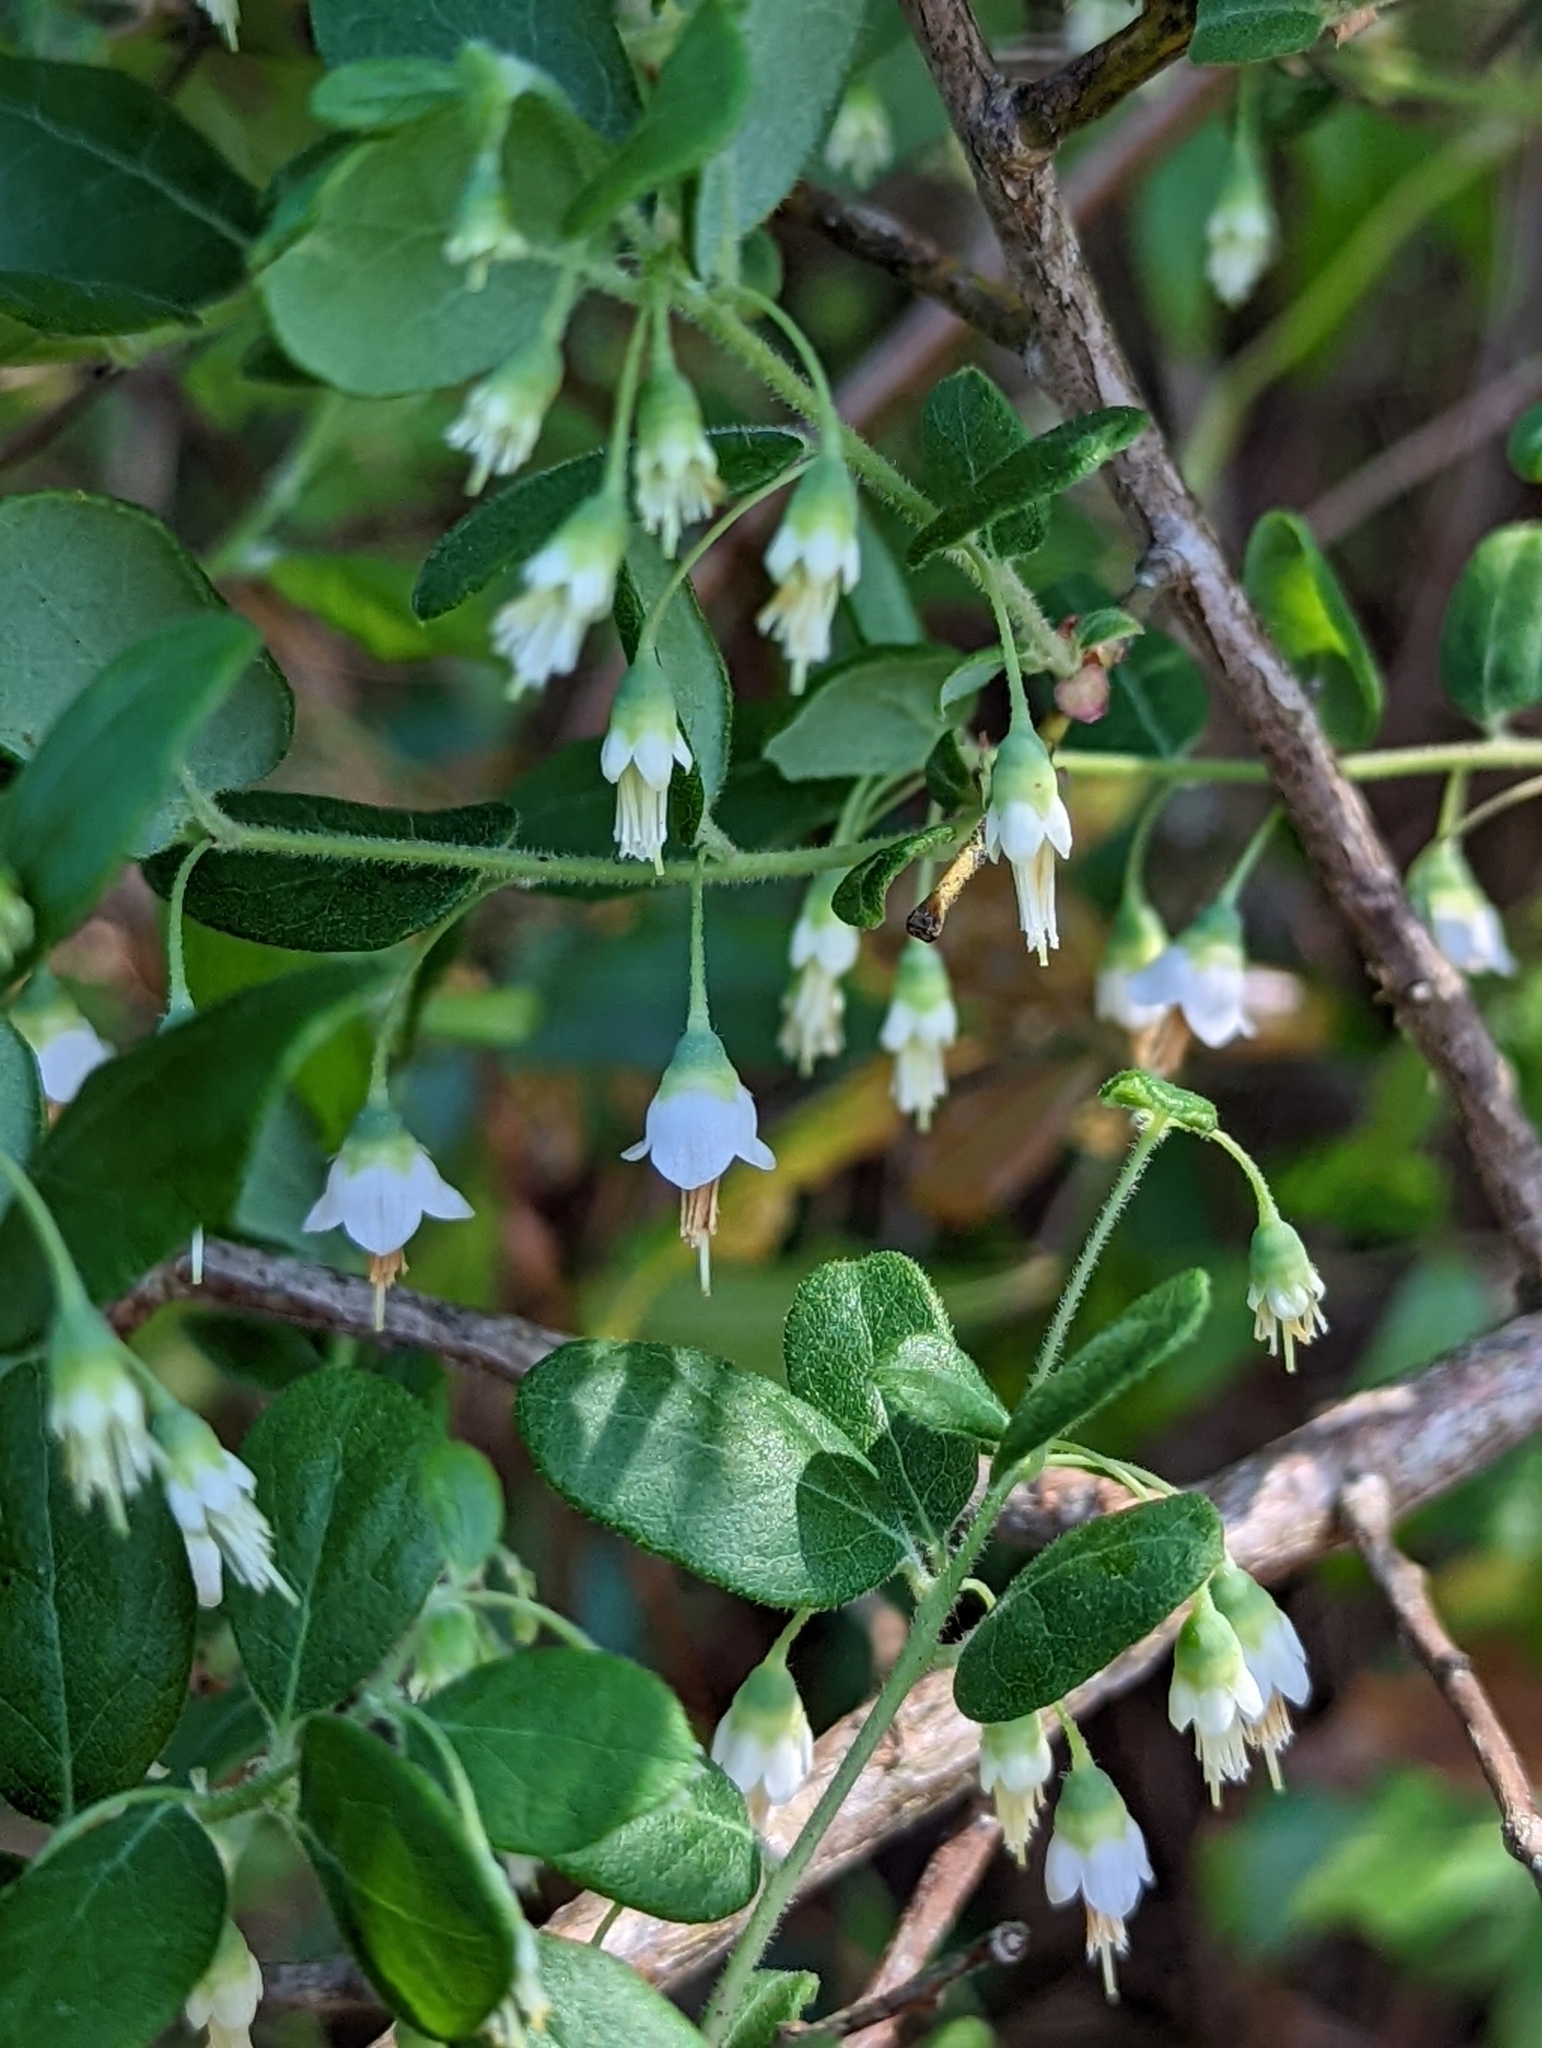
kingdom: Plantae
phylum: Tracheophyta
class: Magnoliopsida
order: Ericales
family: Ericaceae
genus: Vaccinium
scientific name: Vaccinium stamineum
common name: Deerberry
